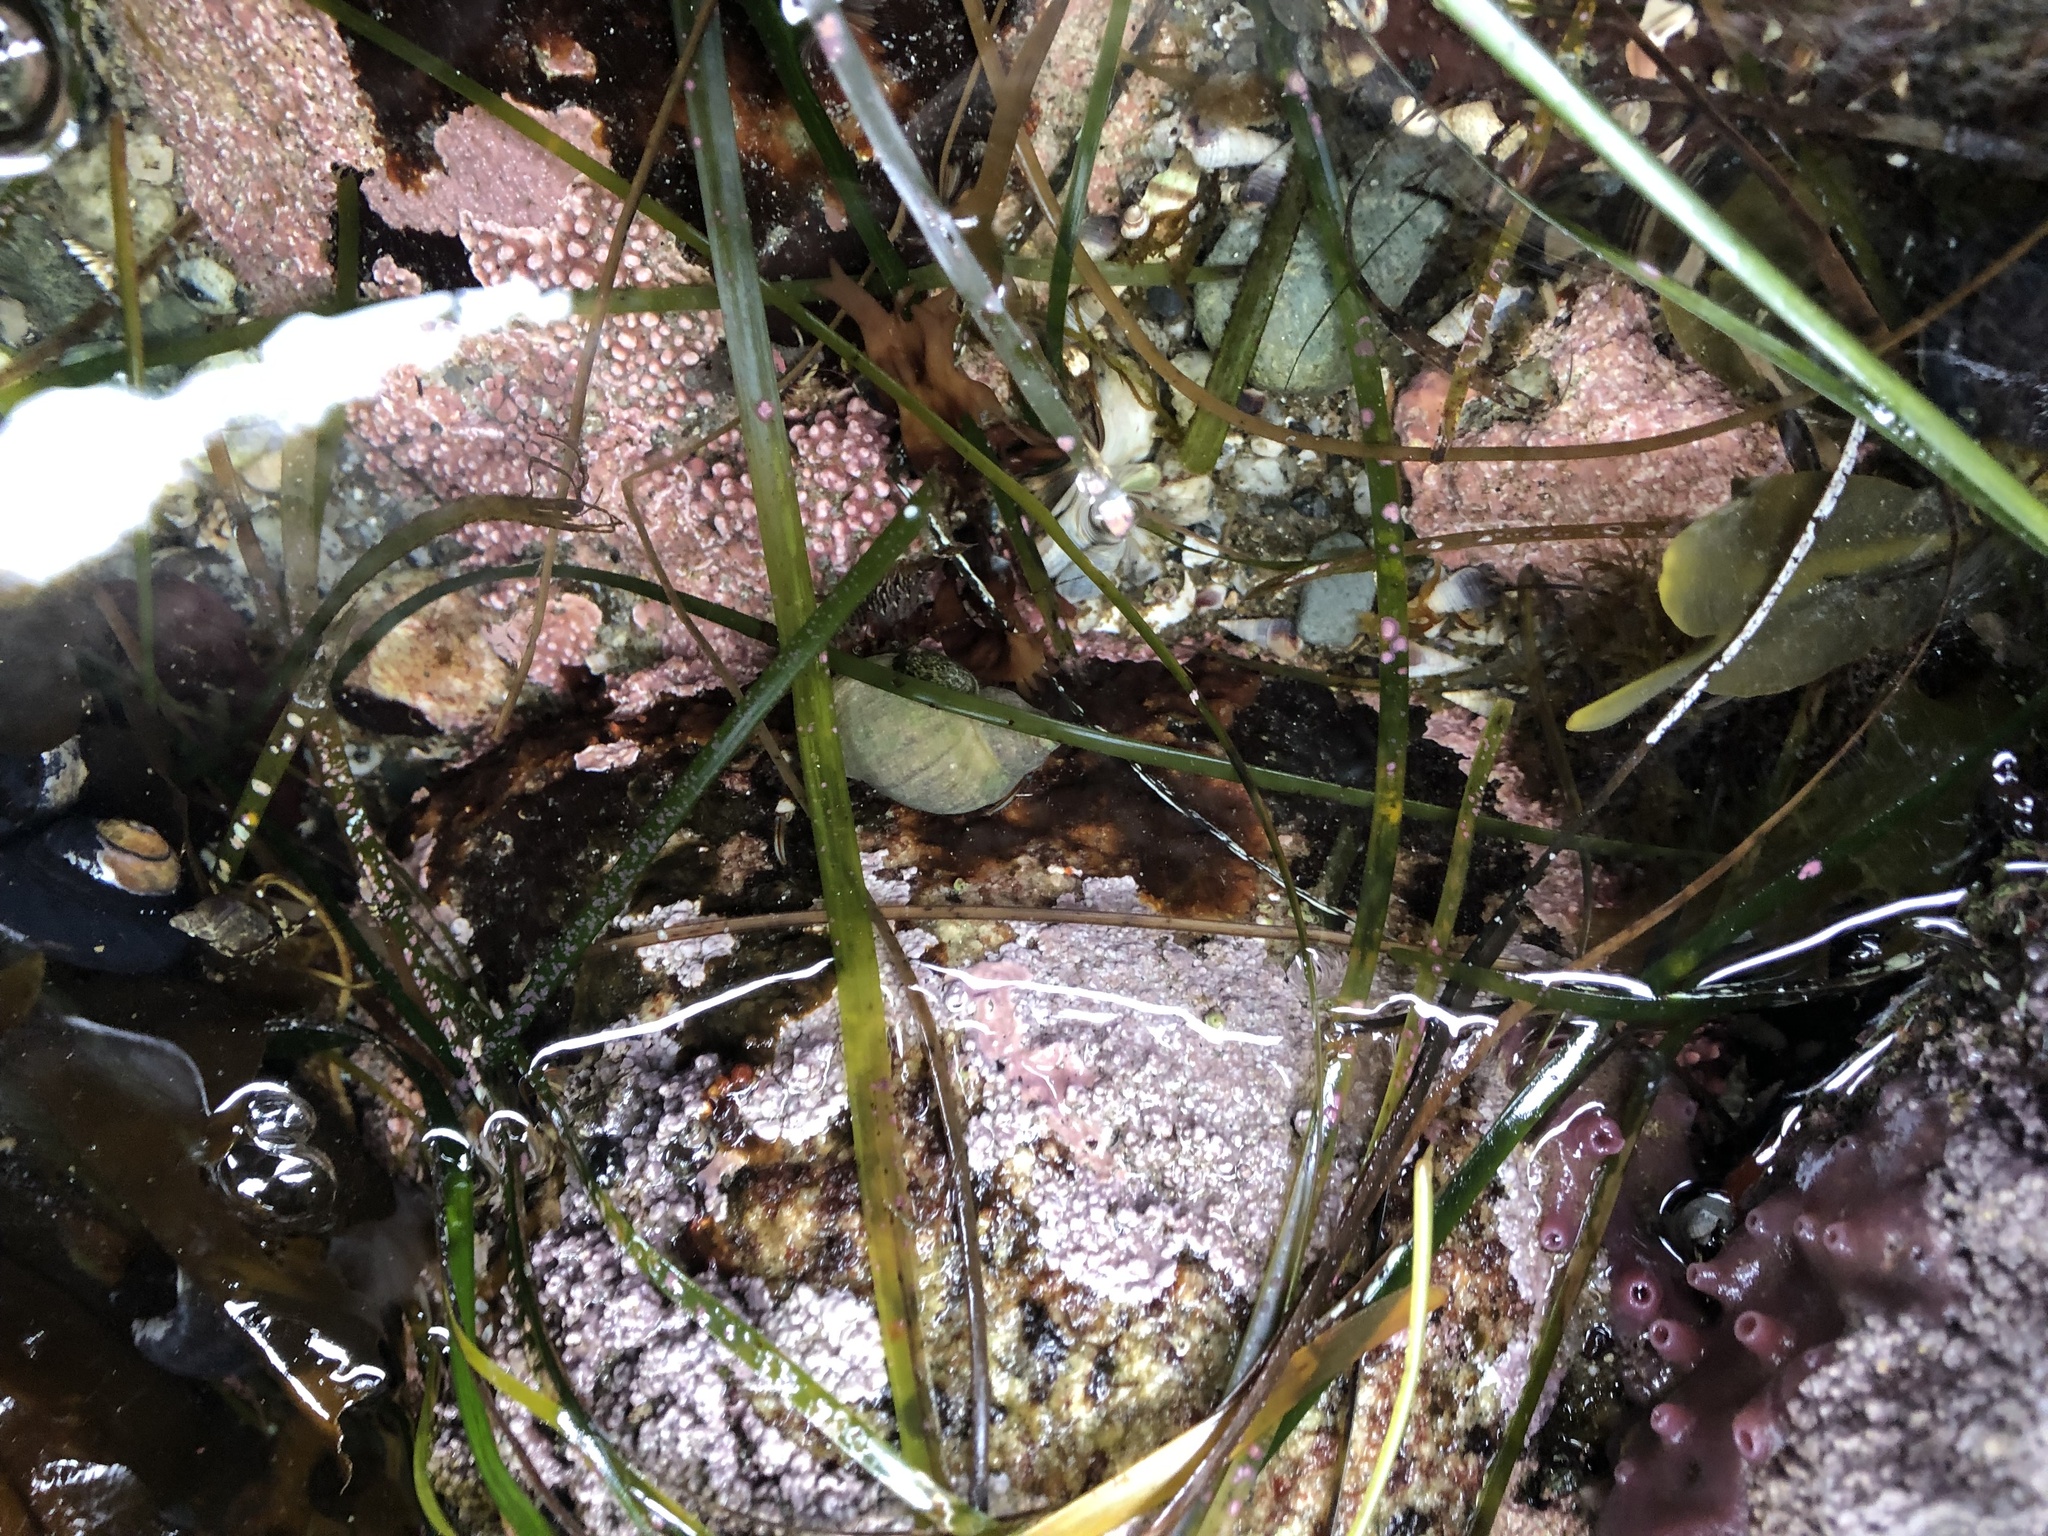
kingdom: Plantae
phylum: Rhodophyta
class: Florideophyceae
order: Corallinales
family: Corallinaceae
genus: Chamberlainium
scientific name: Chamberlainium tumidum
